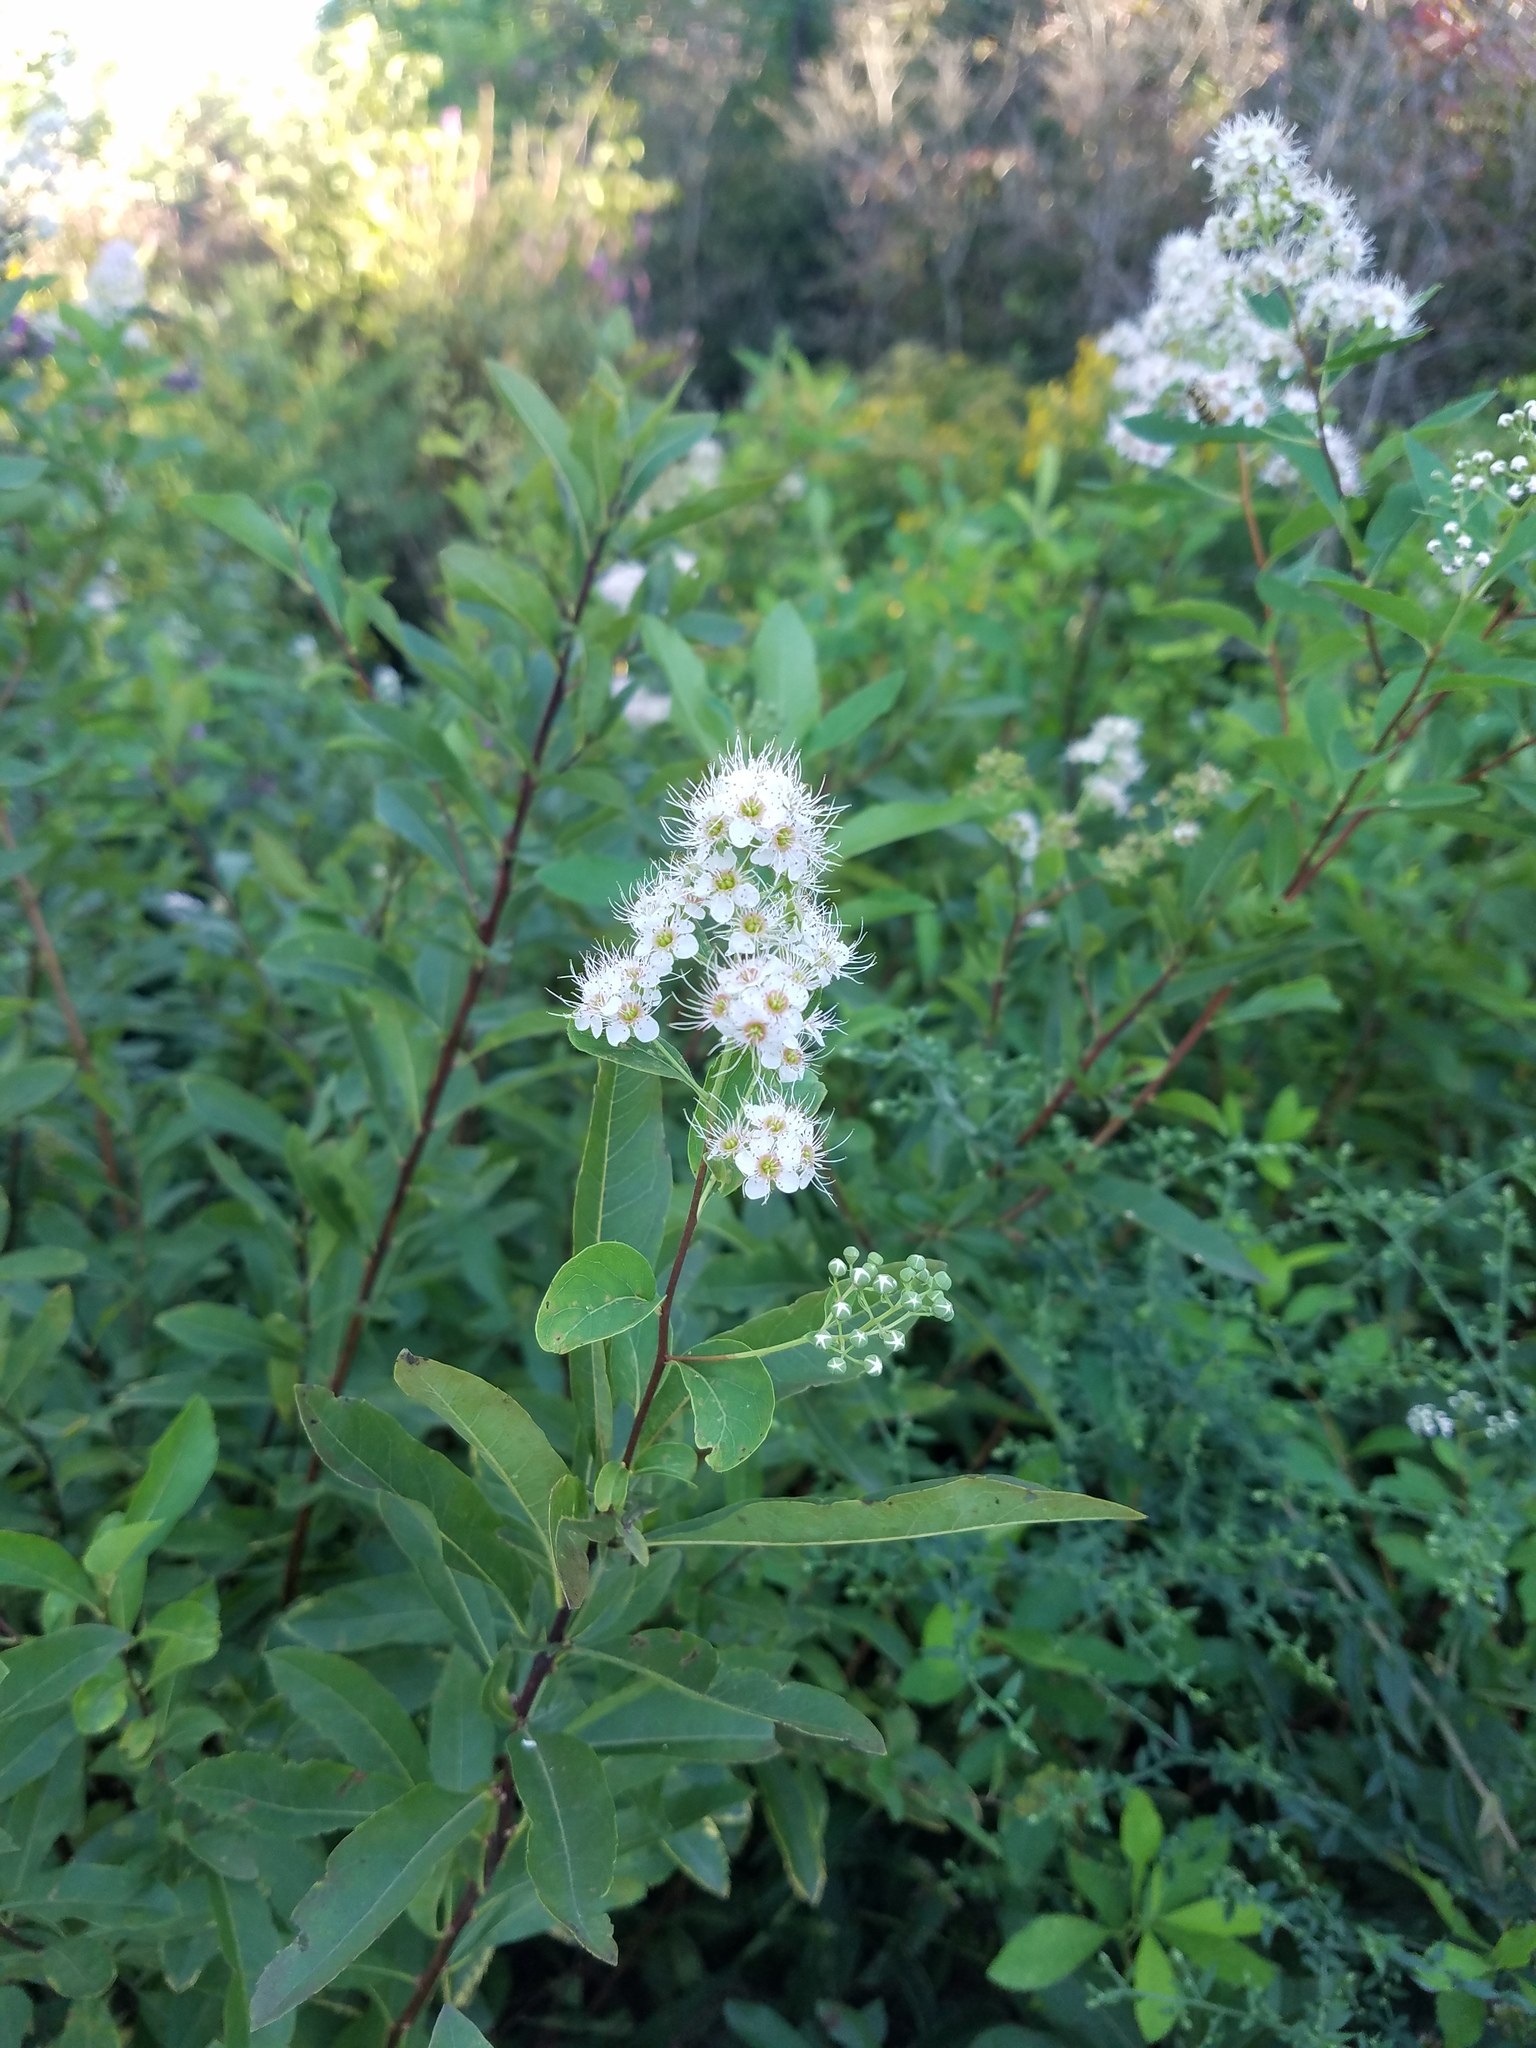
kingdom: Plantae
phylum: Tracheophyta
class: Magnoliopsida
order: Rosales
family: Rosaceae
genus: Spiraea
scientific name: Spiraea alba
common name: Pale bridewort
